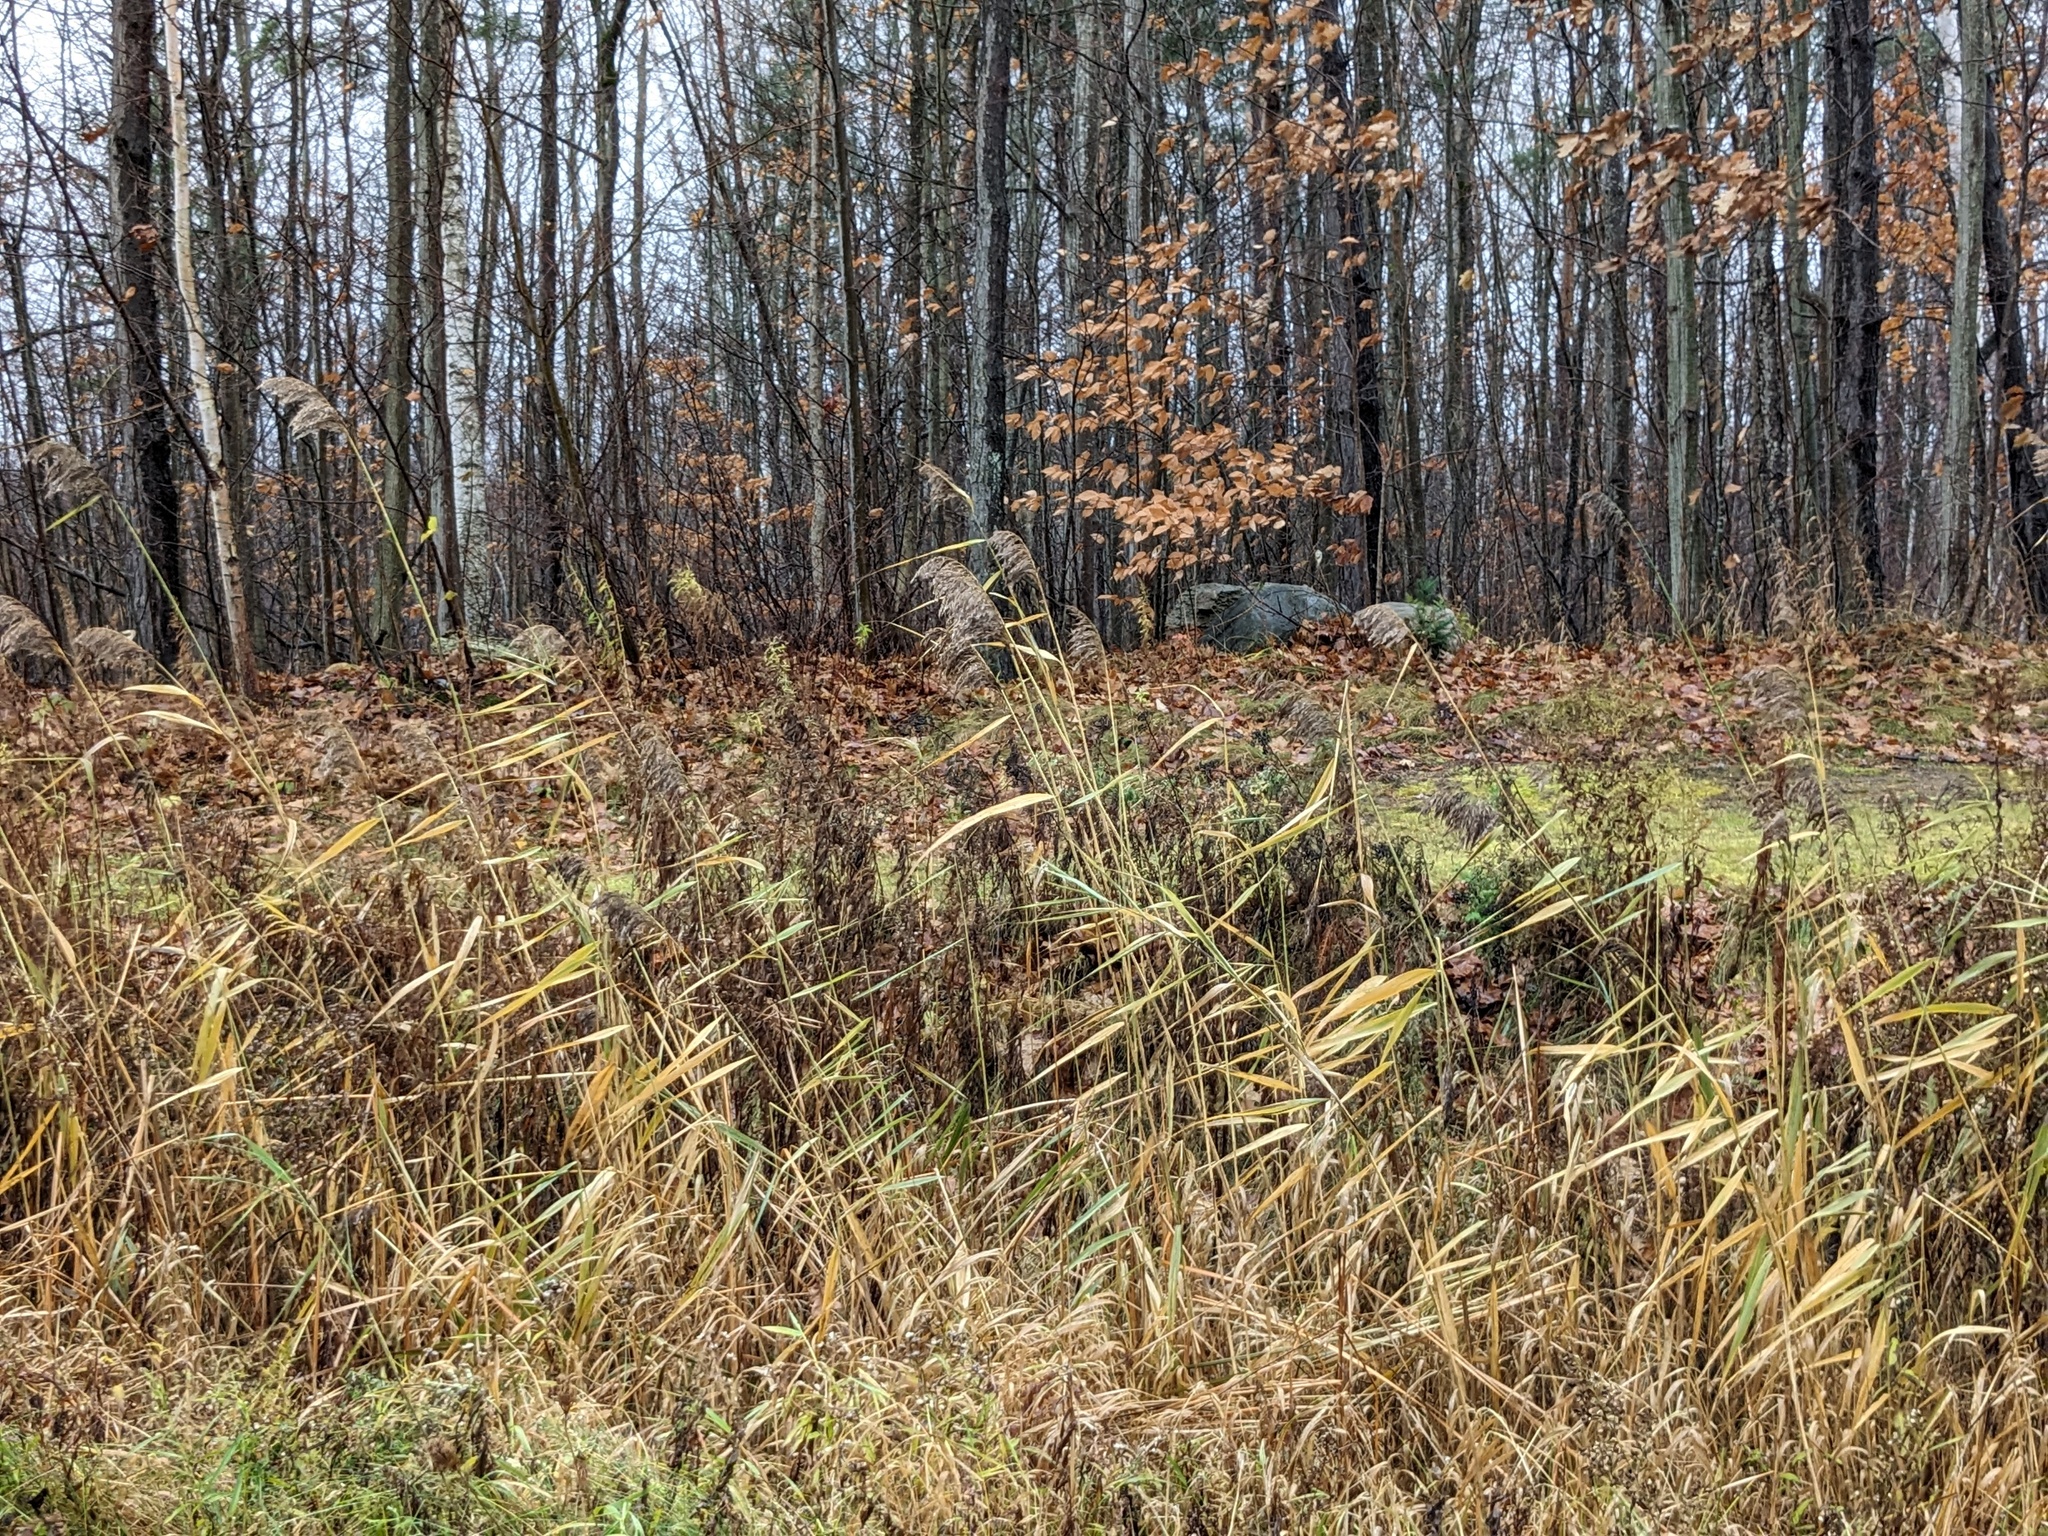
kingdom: Plantae
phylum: Tracheophyta
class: Liliopsida
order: Poales
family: Poaceae
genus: Phragmites
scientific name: Phragmites australis
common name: Common reed
